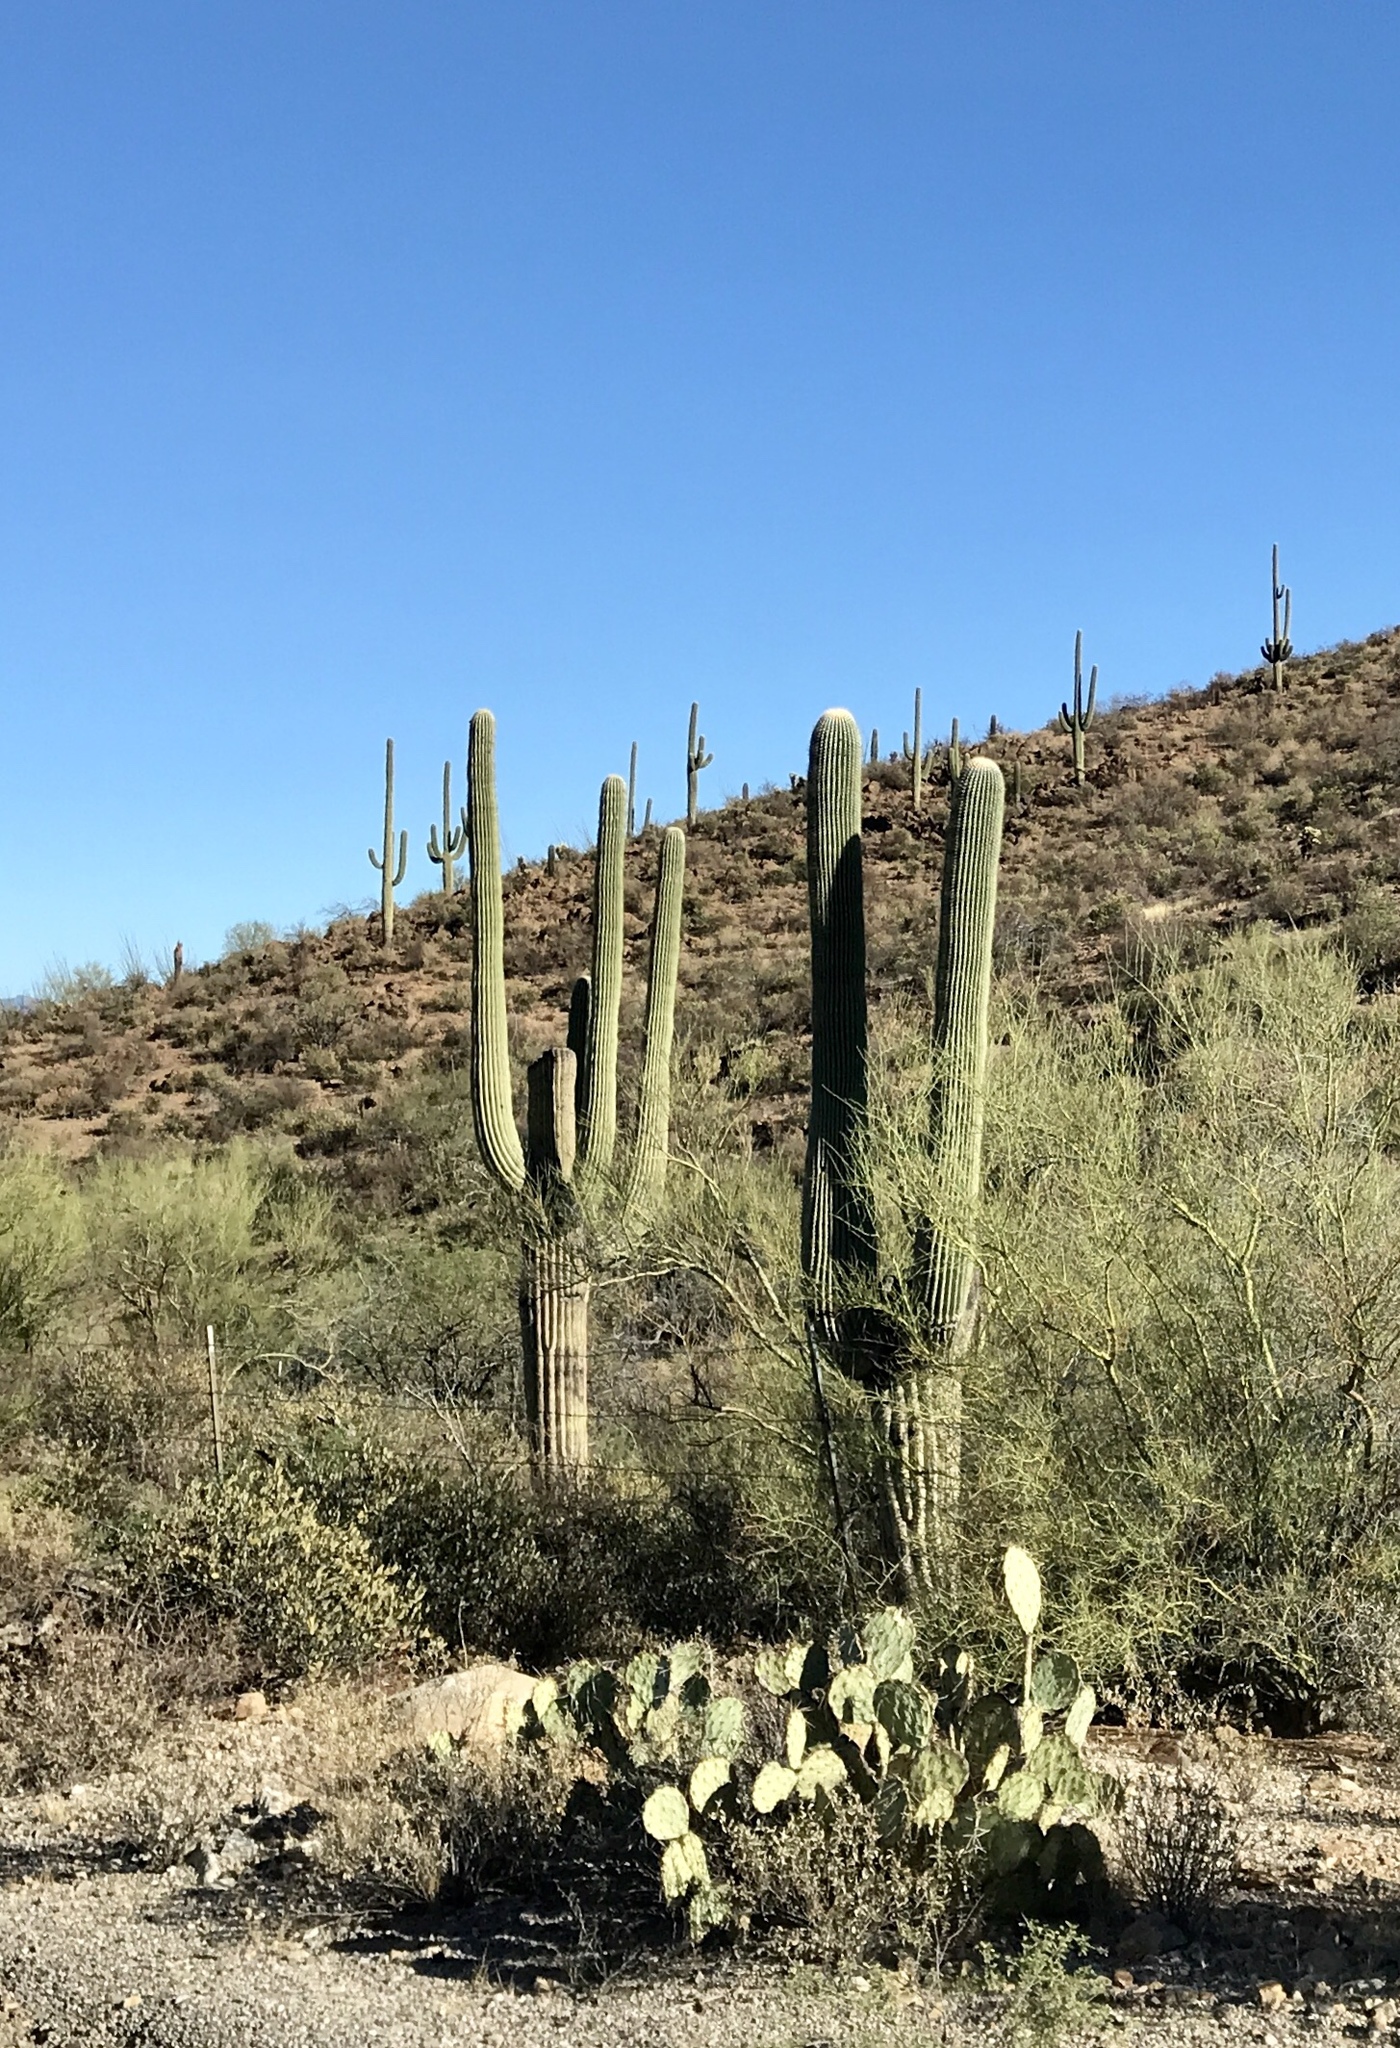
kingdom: Plantae
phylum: Tracheophyta
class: Magnoliopsida
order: Caryophyllales
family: Cactaceae
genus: Carnegiea
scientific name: Carnegiea gigantea
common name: Saguaro
